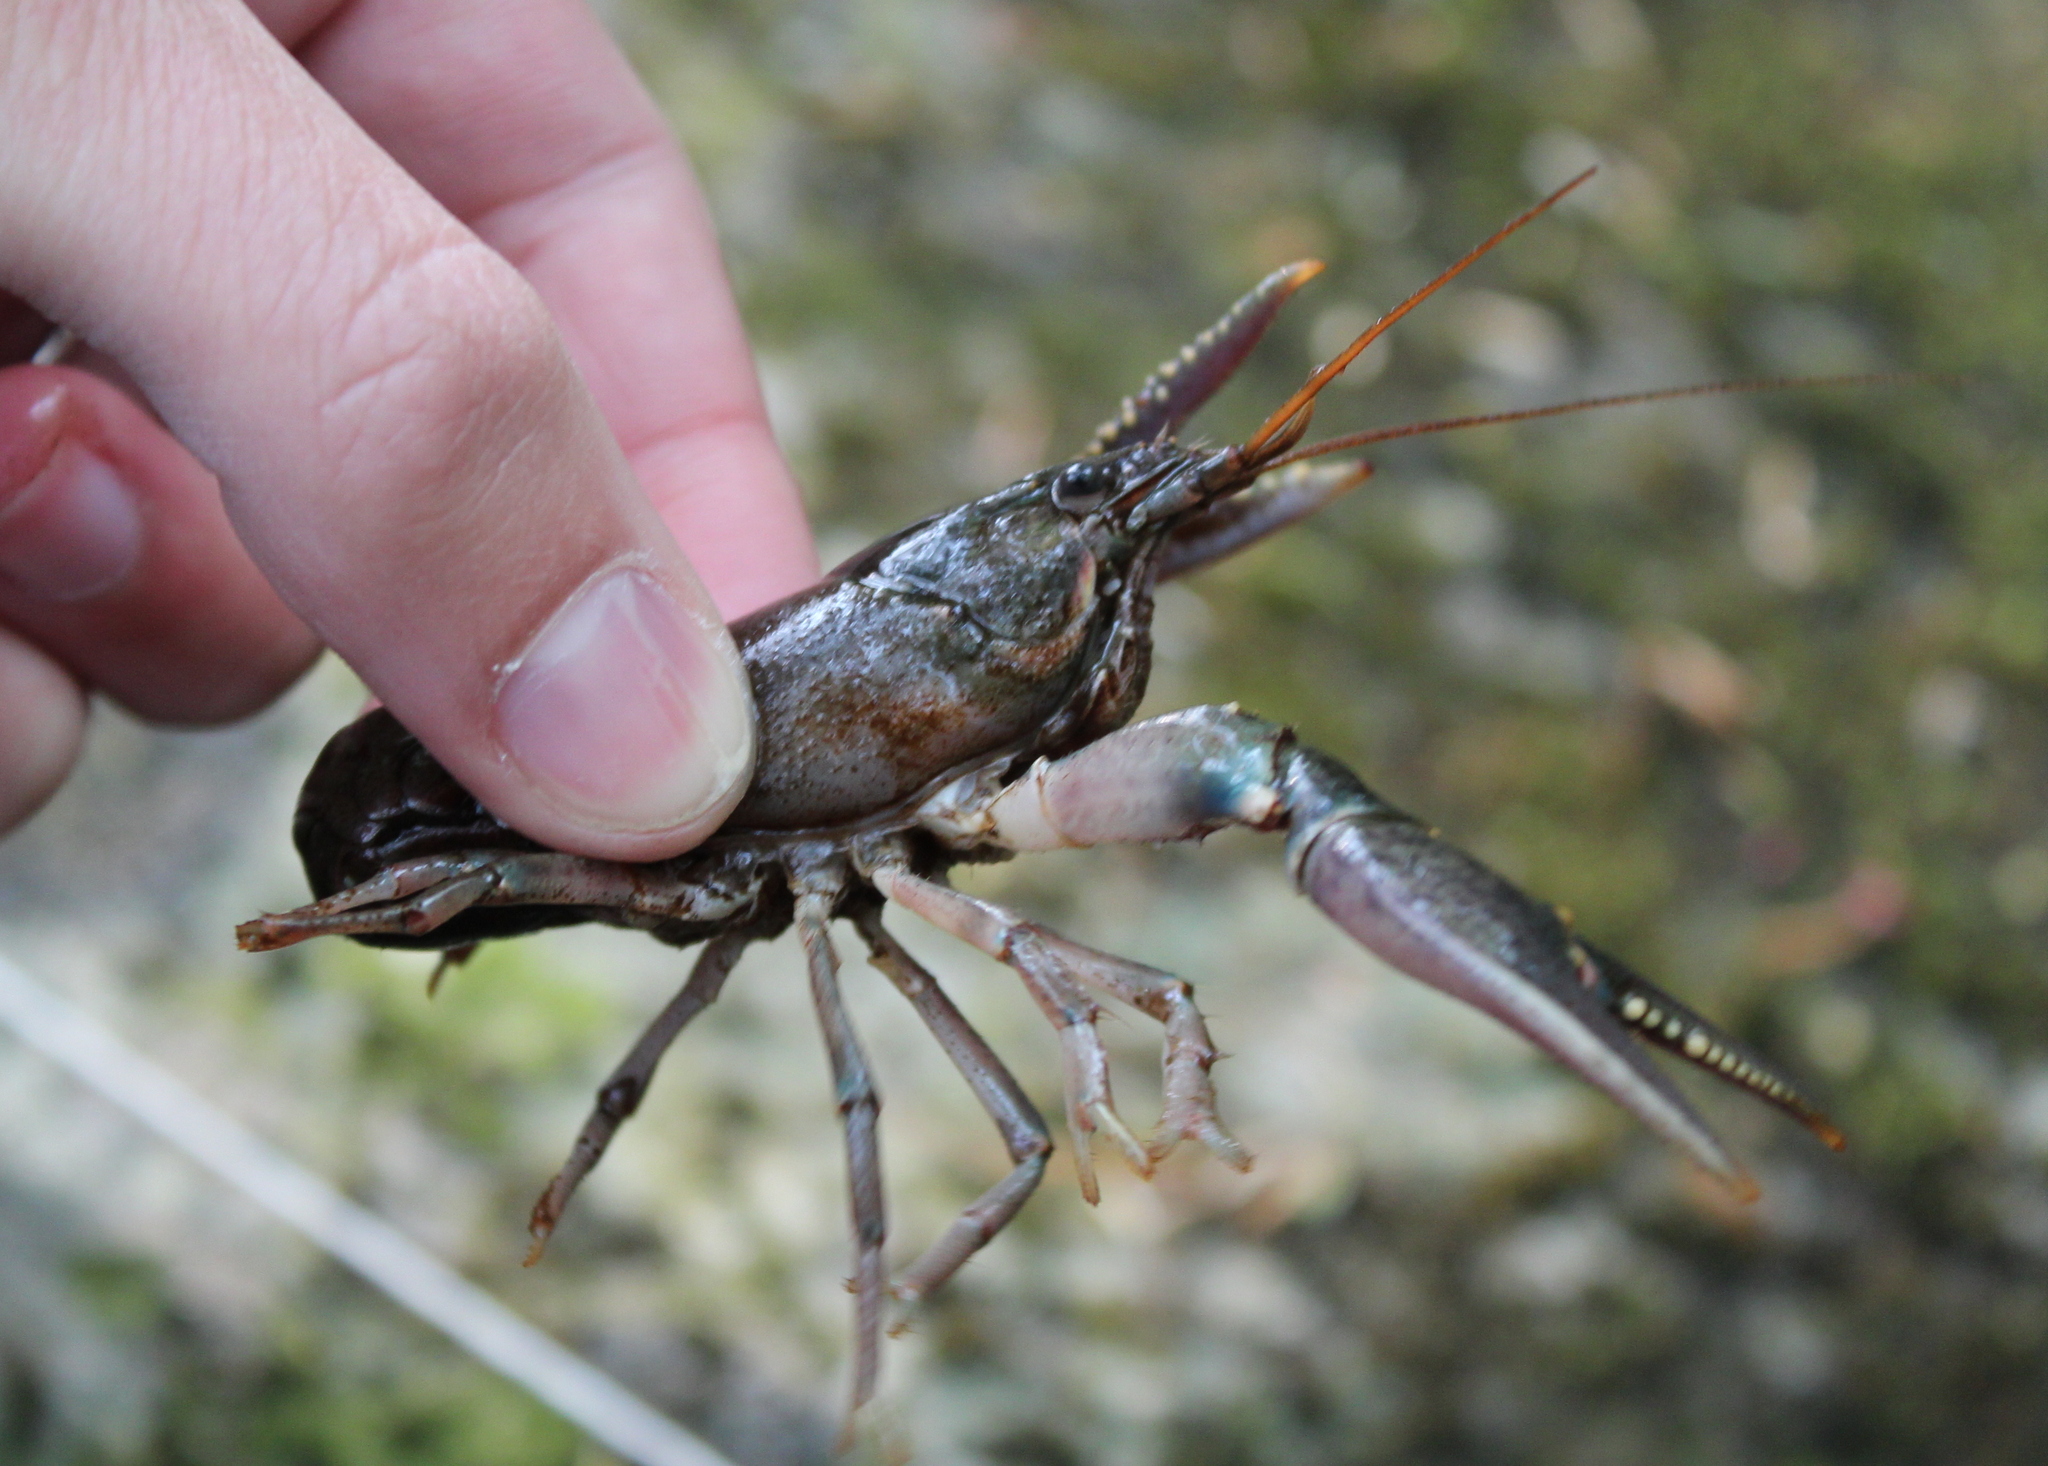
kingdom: Animalia
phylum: Arthropoda
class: Malacostraca
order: Decapoda
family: Cambaridae
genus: Faxonius
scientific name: Faxonius virilis
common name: Virile crayfish
